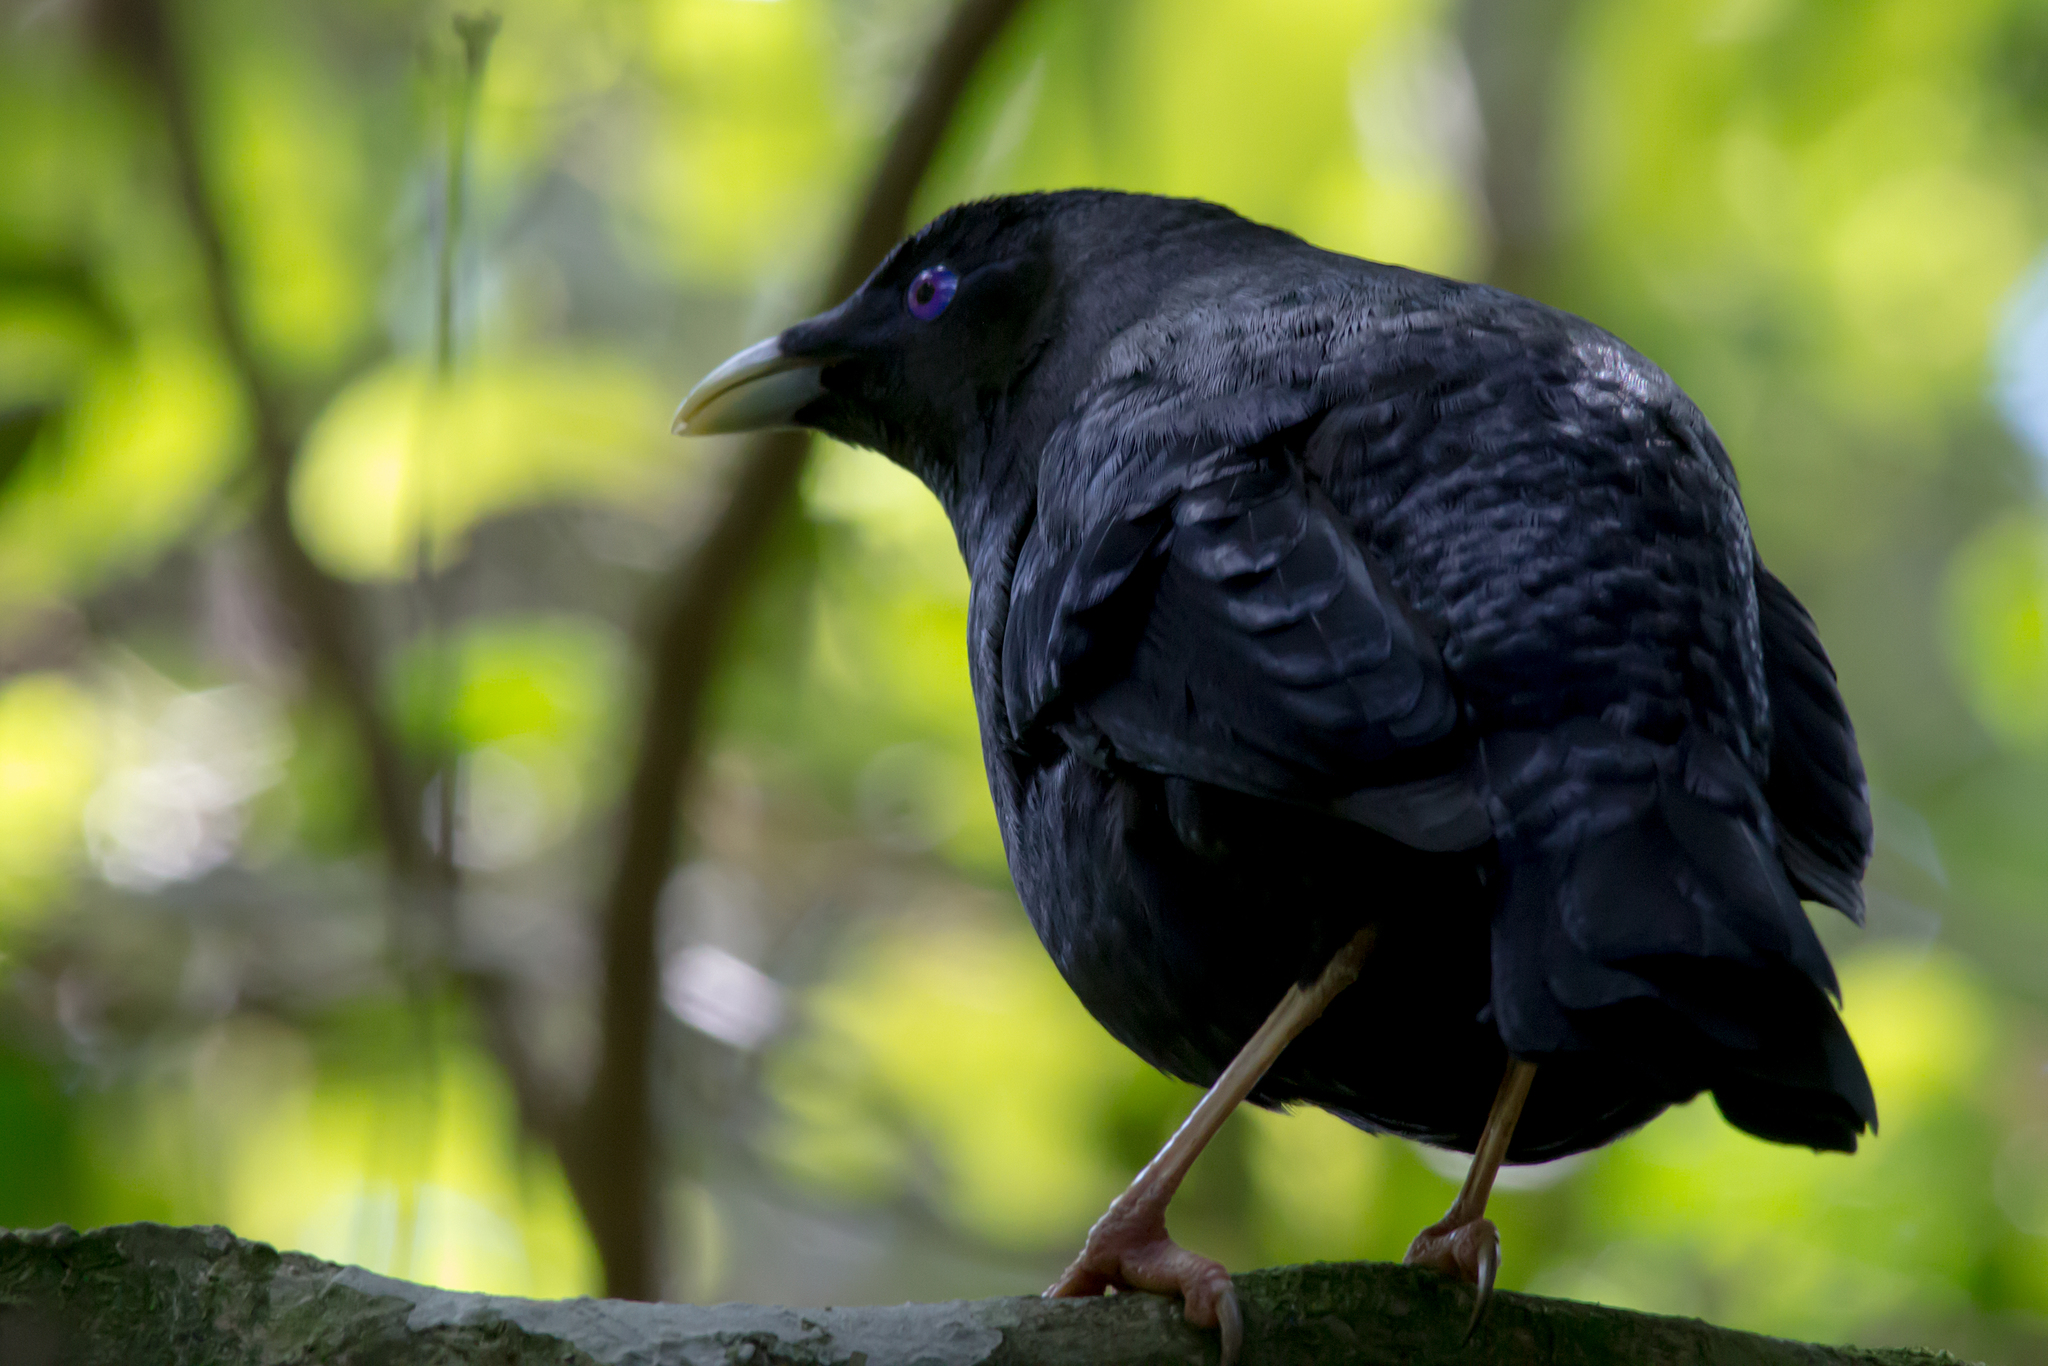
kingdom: Animalia
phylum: Chordata
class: Aves
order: Passeriformes
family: Ptilonorhynchidae
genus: Ptilonorhynchus
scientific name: Ptilonorhynchus violaceus
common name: Satin bowerbird
